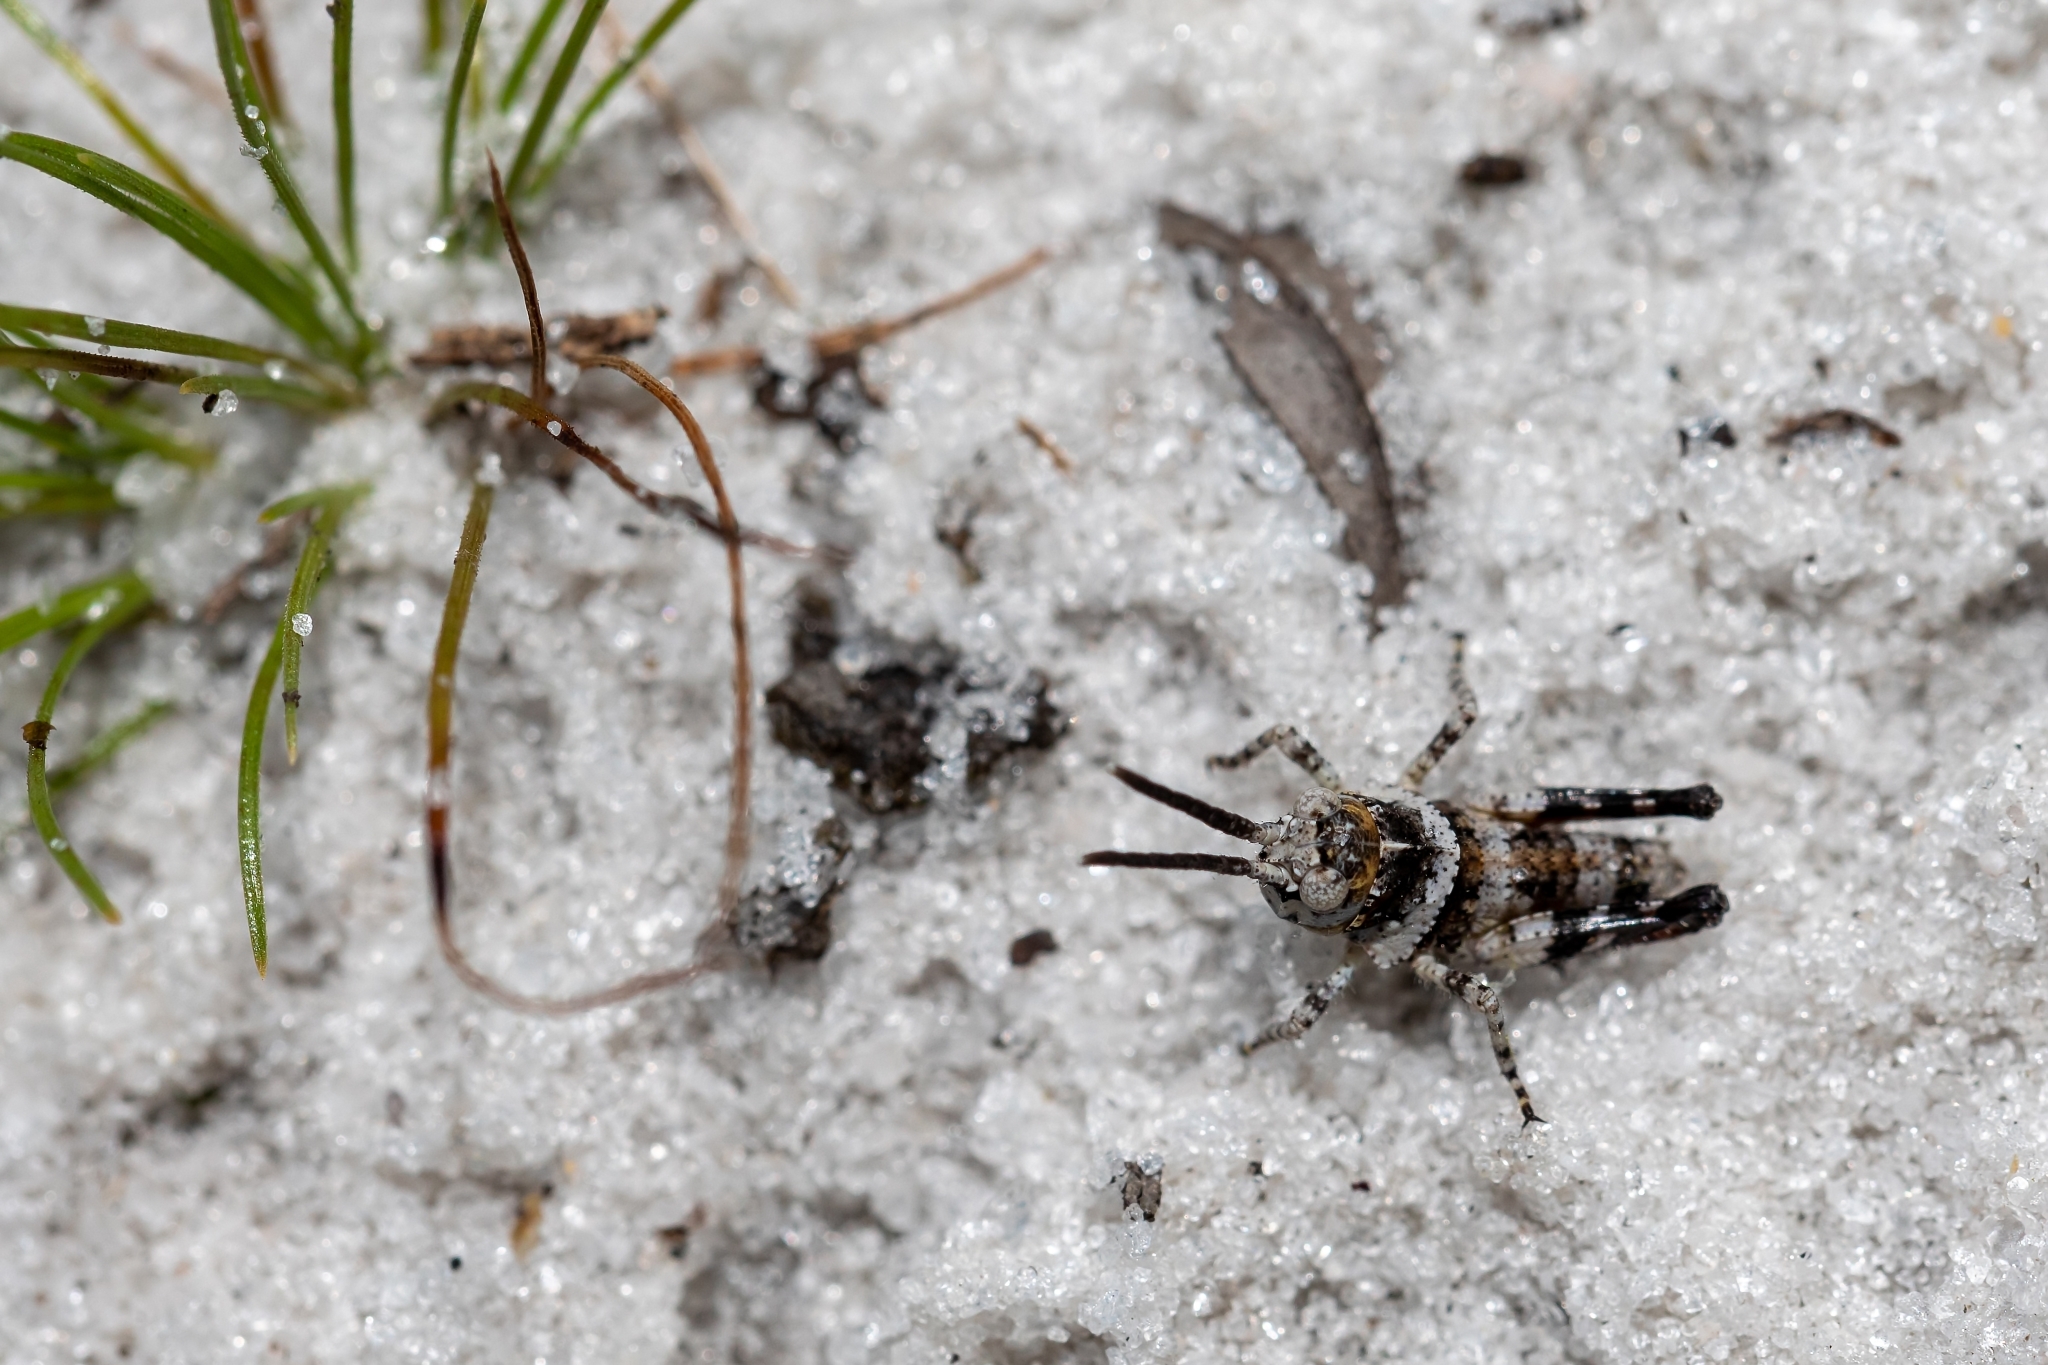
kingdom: Animalia
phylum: Arthropoda
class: Insecta
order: Orthoptera
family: Acrididae
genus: Psinidia
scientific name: Psinidia fenestralis
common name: Long-horned locust
